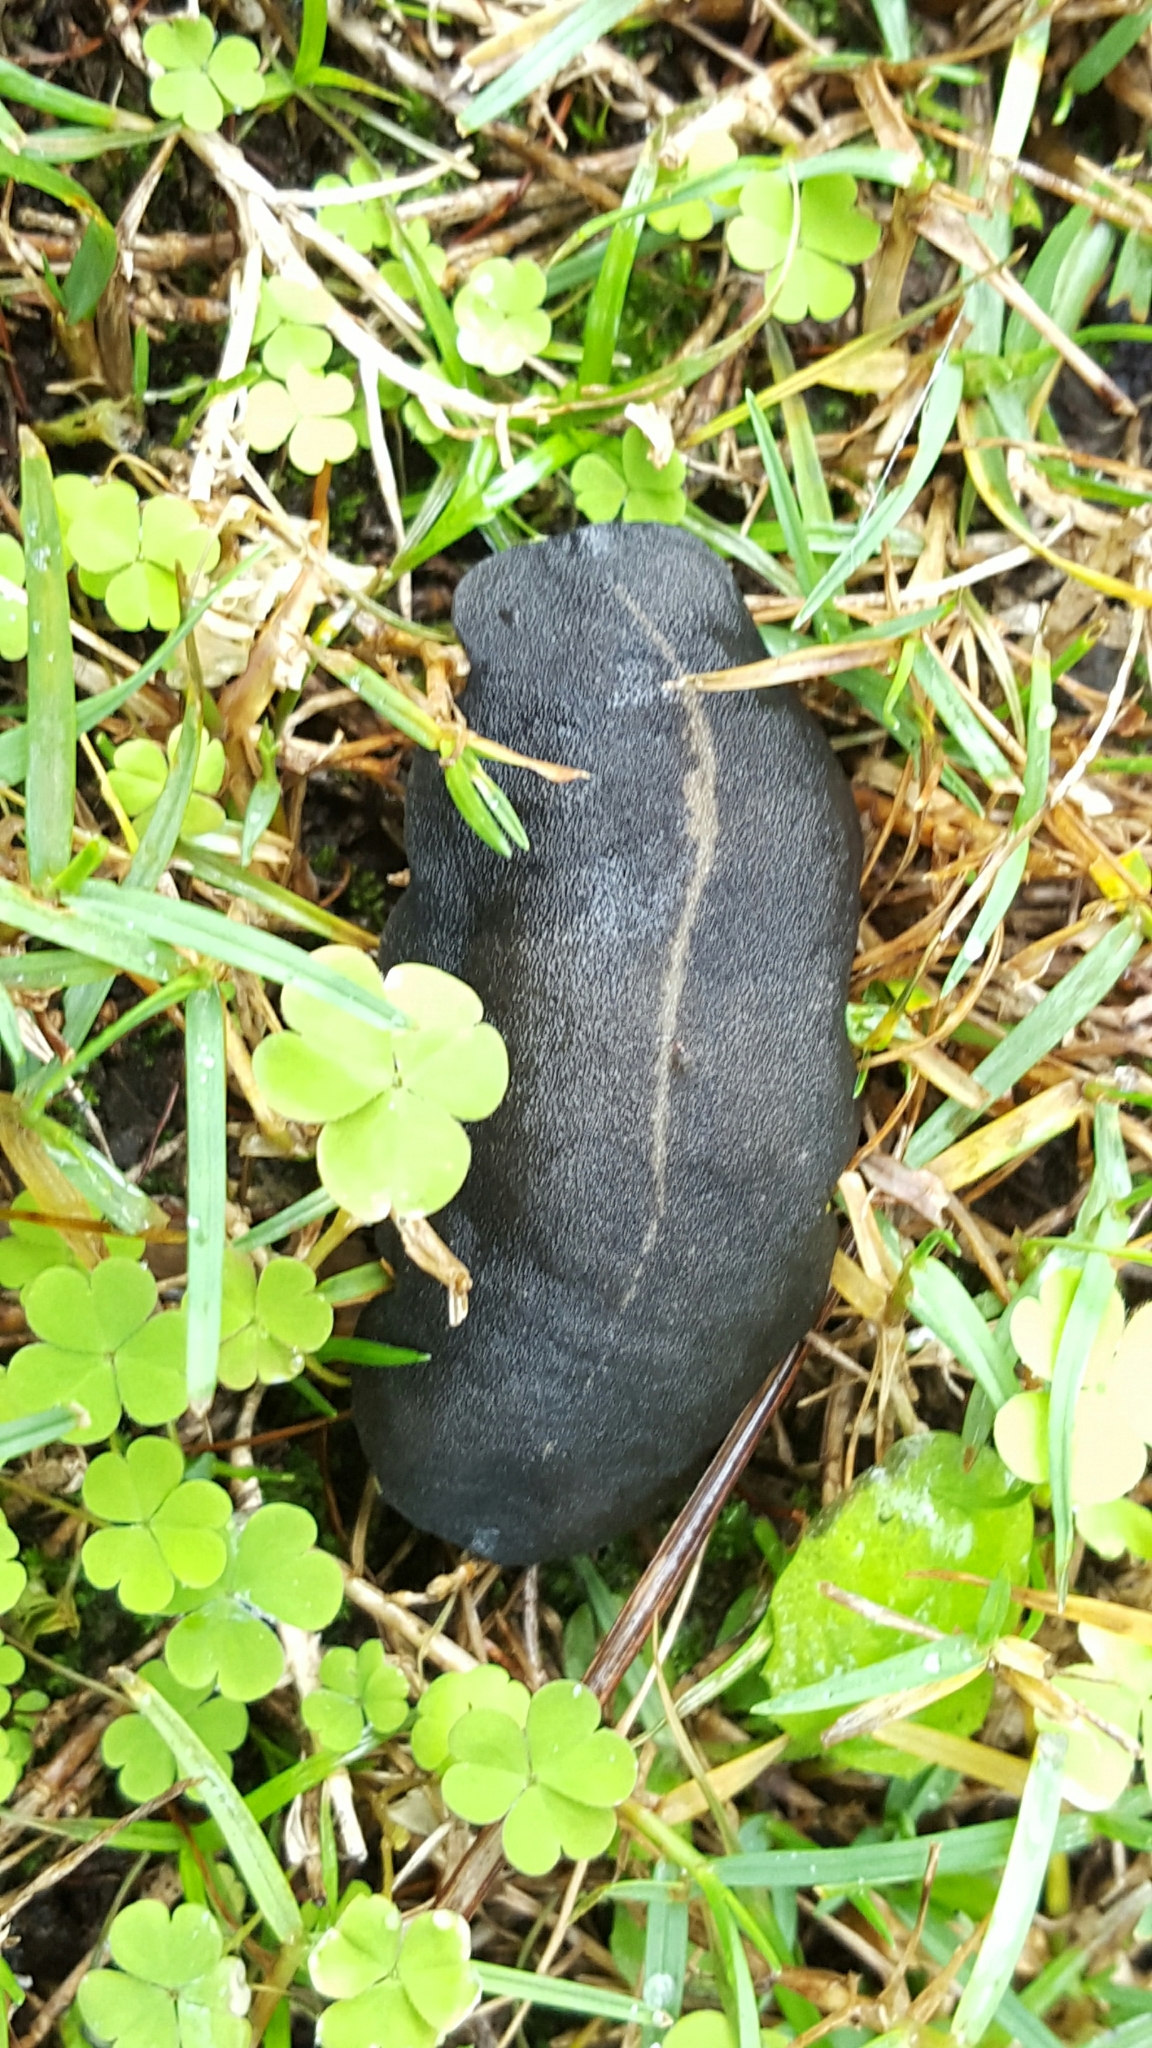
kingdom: Animalia
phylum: Mollusca
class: Gastropoda
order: Systellommatophora
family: Veronicellidae
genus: Laevicaulis
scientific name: Laevicaulis alte
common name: Tropical leatherleaf
